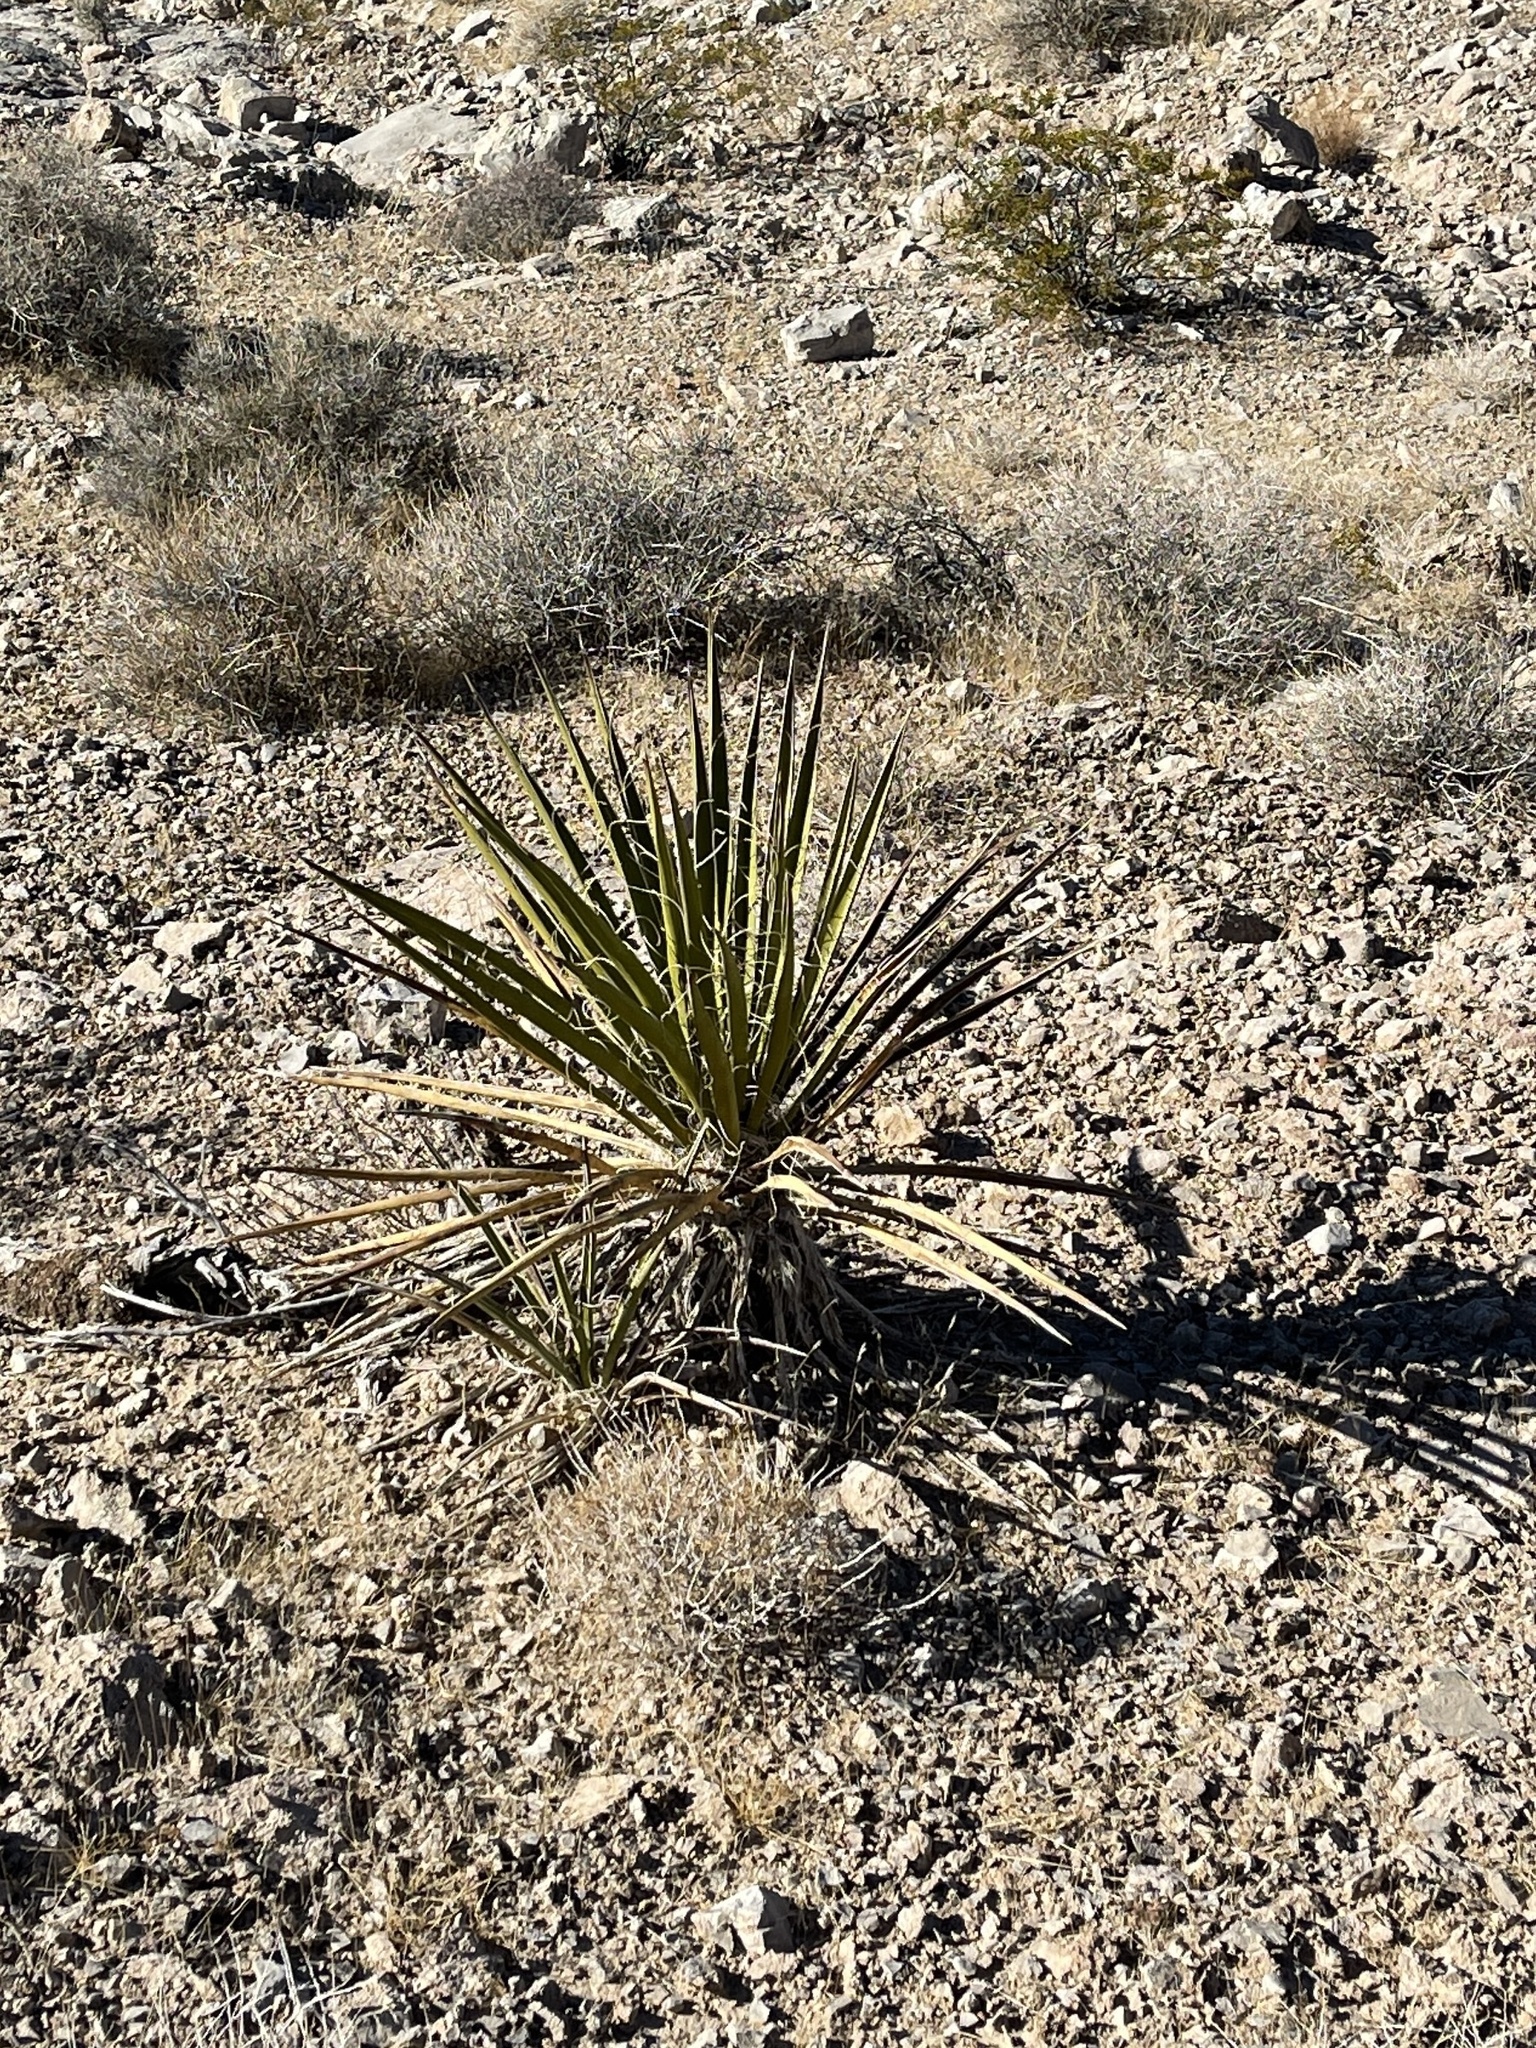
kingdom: Plantae
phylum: Tracheophyta
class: Liliopsida
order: Asparagales
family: Asparagaceae
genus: Yucca
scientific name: Yucca schidigera
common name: Mojave yucca
